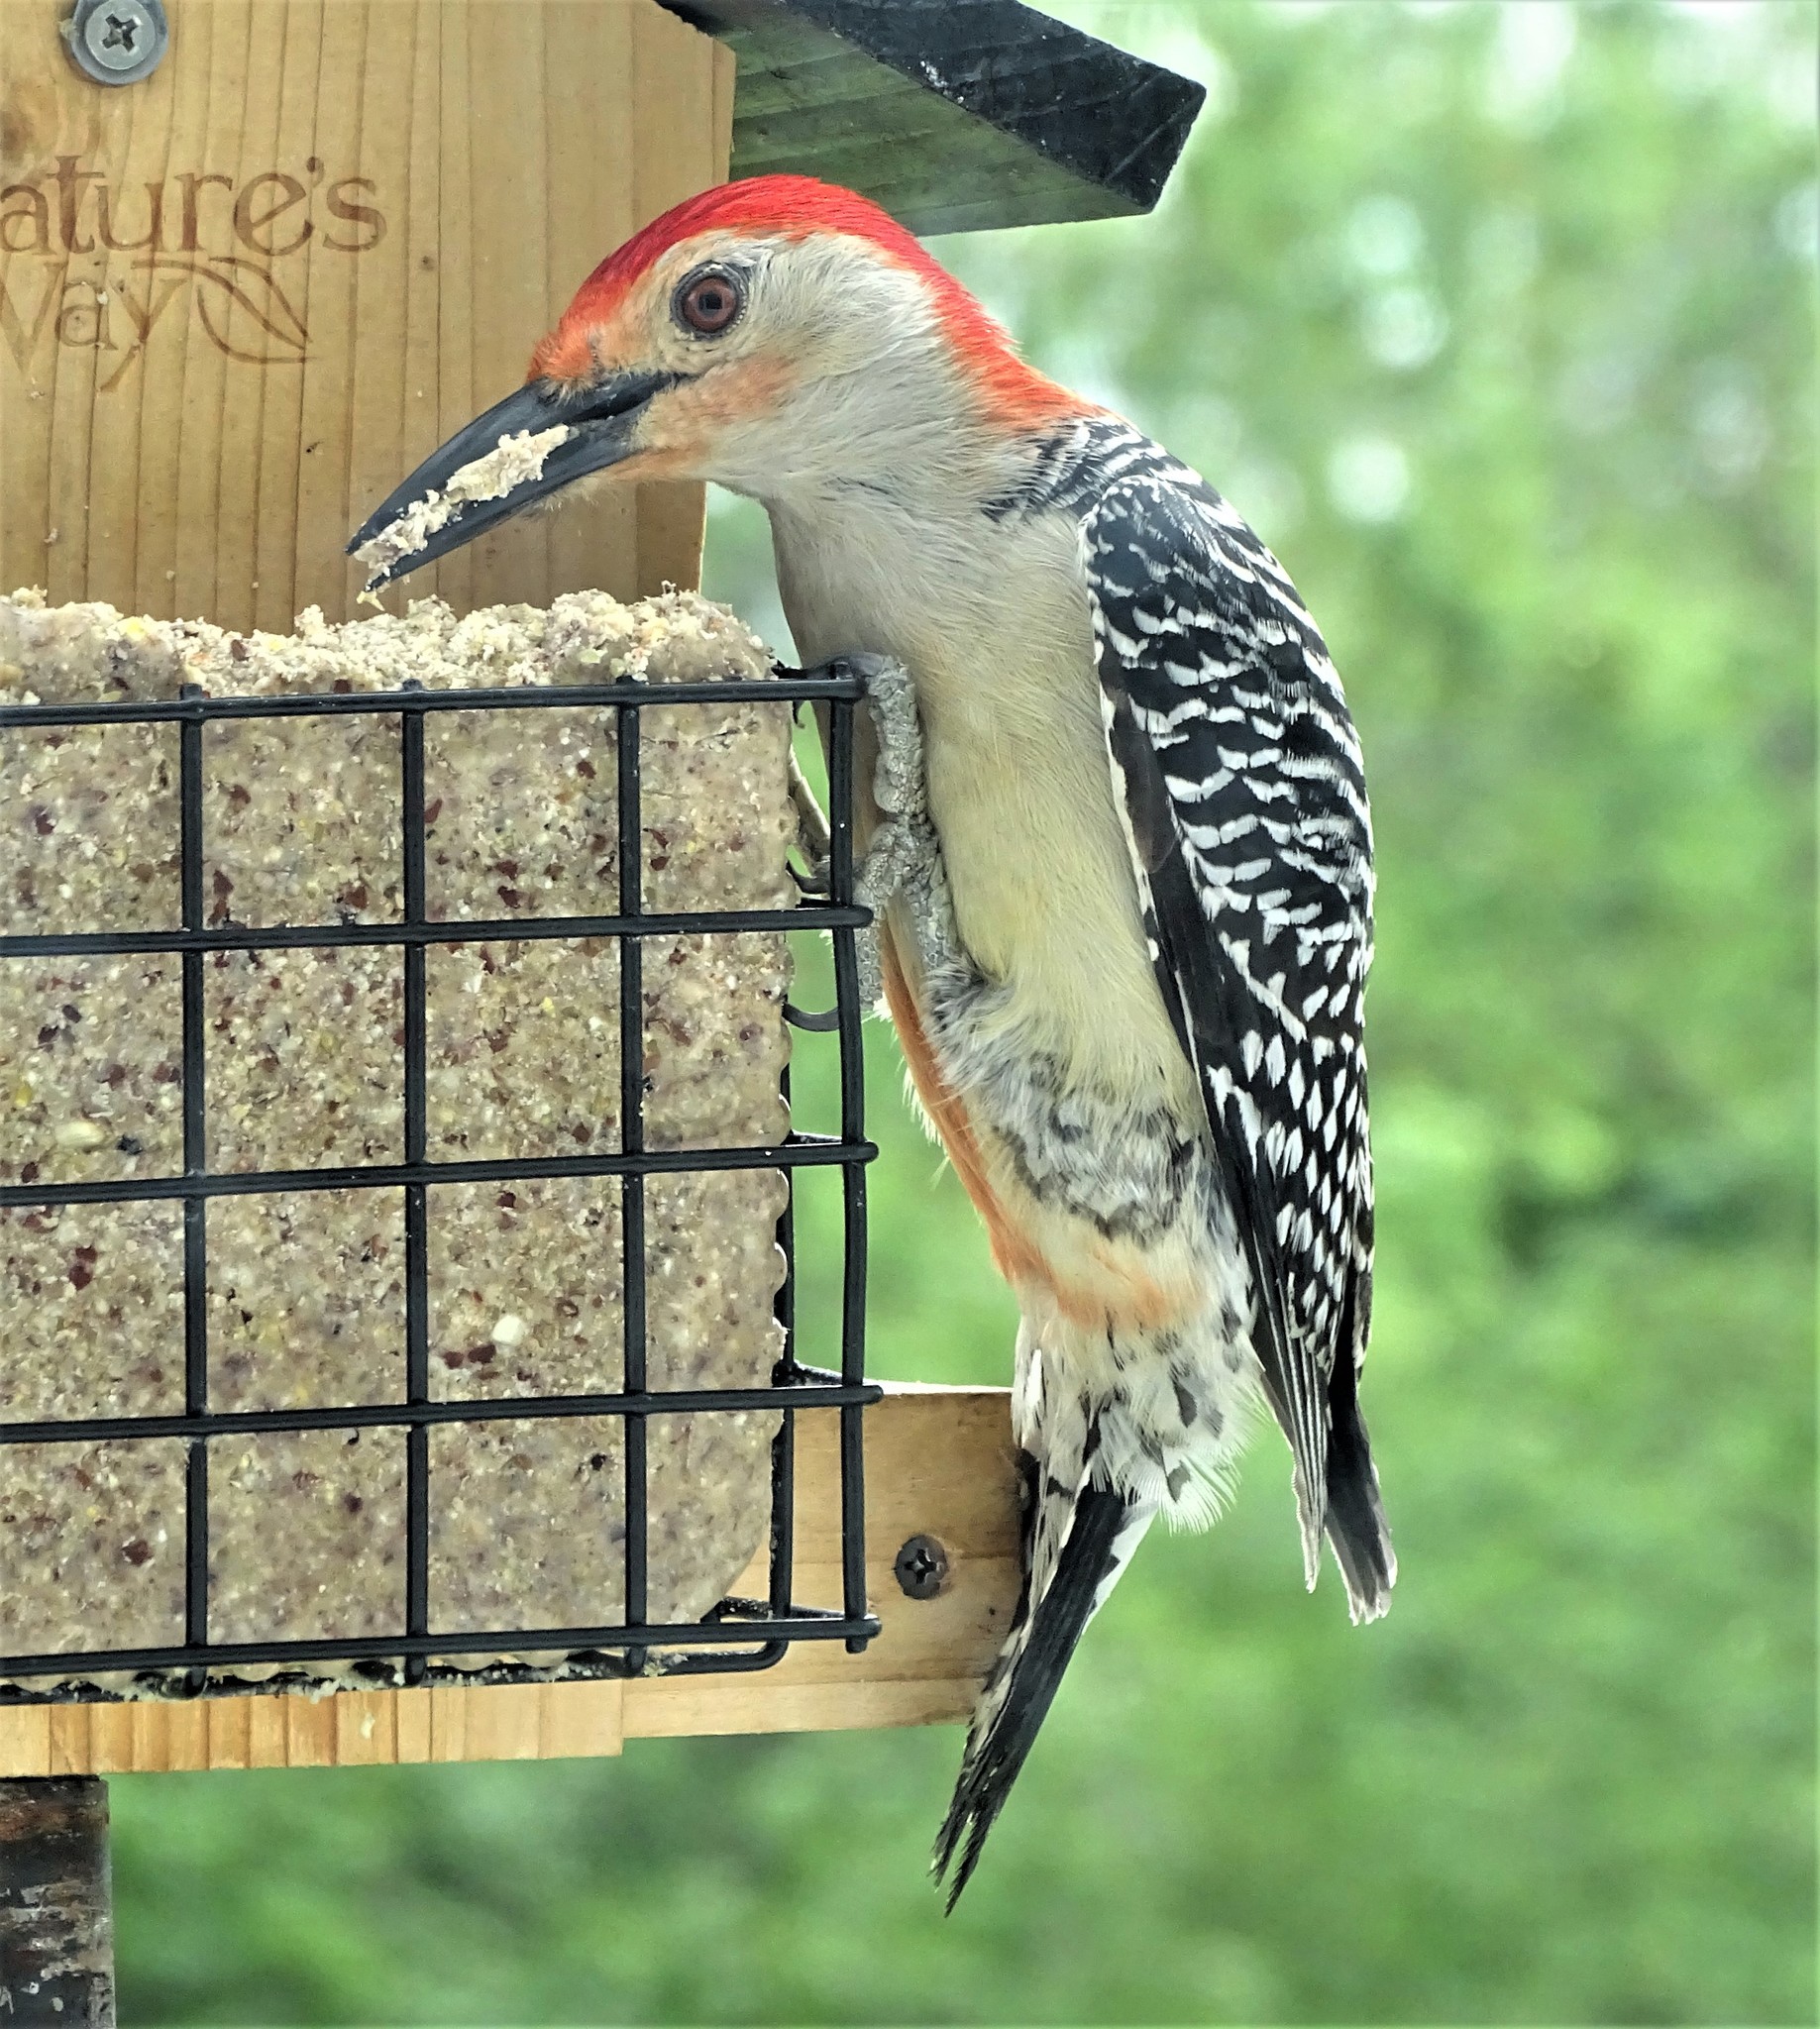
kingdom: Animalia
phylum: Chordata
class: Aves
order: Piciformes
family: Picidae
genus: Melanerpes
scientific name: Melanerpes carolinus
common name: Red-bellied woodpecker
